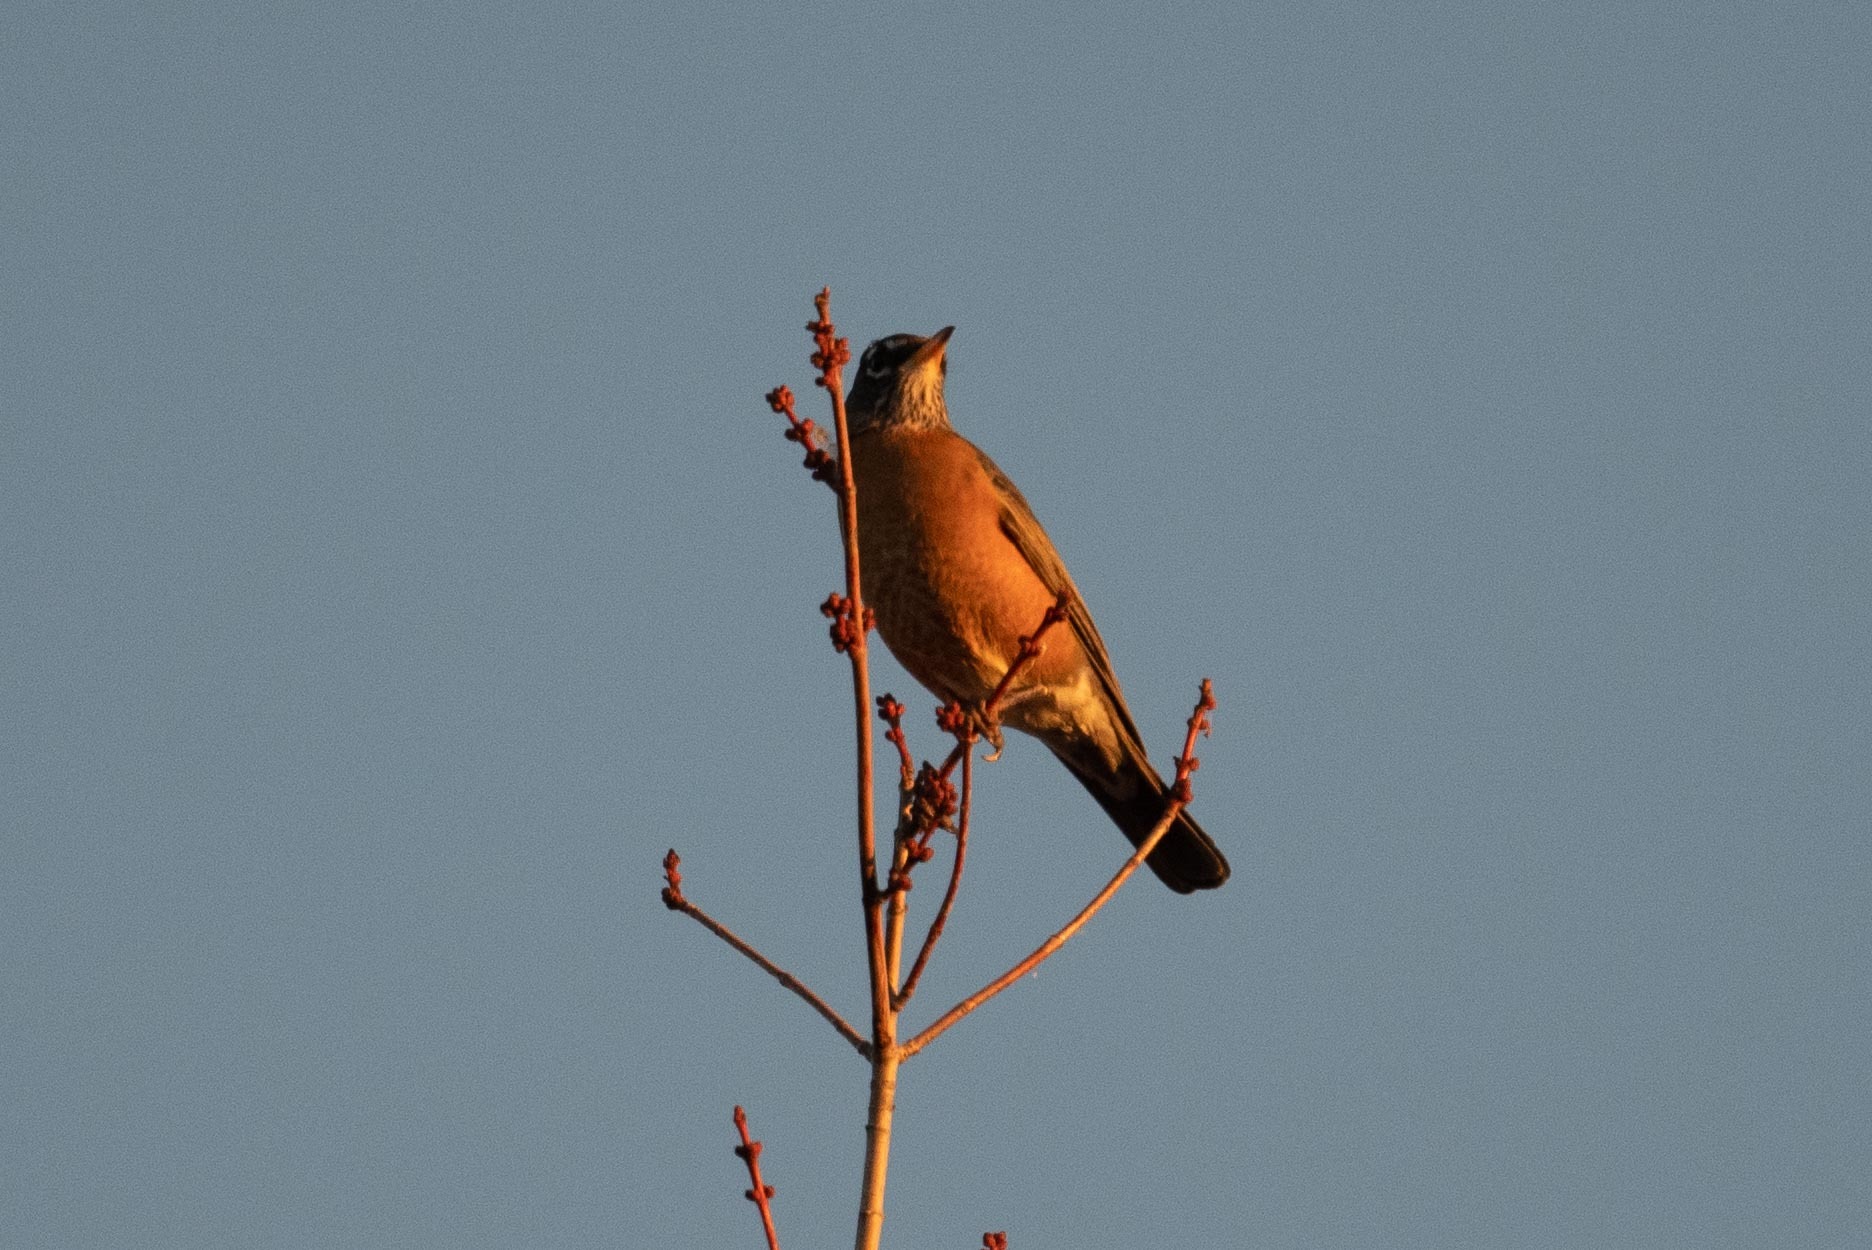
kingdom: Animalia
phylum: Chordata
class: Aves
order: Passeriformes
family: Turdidae
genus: Turdus
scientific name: Turdus migratorius
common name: American robin
